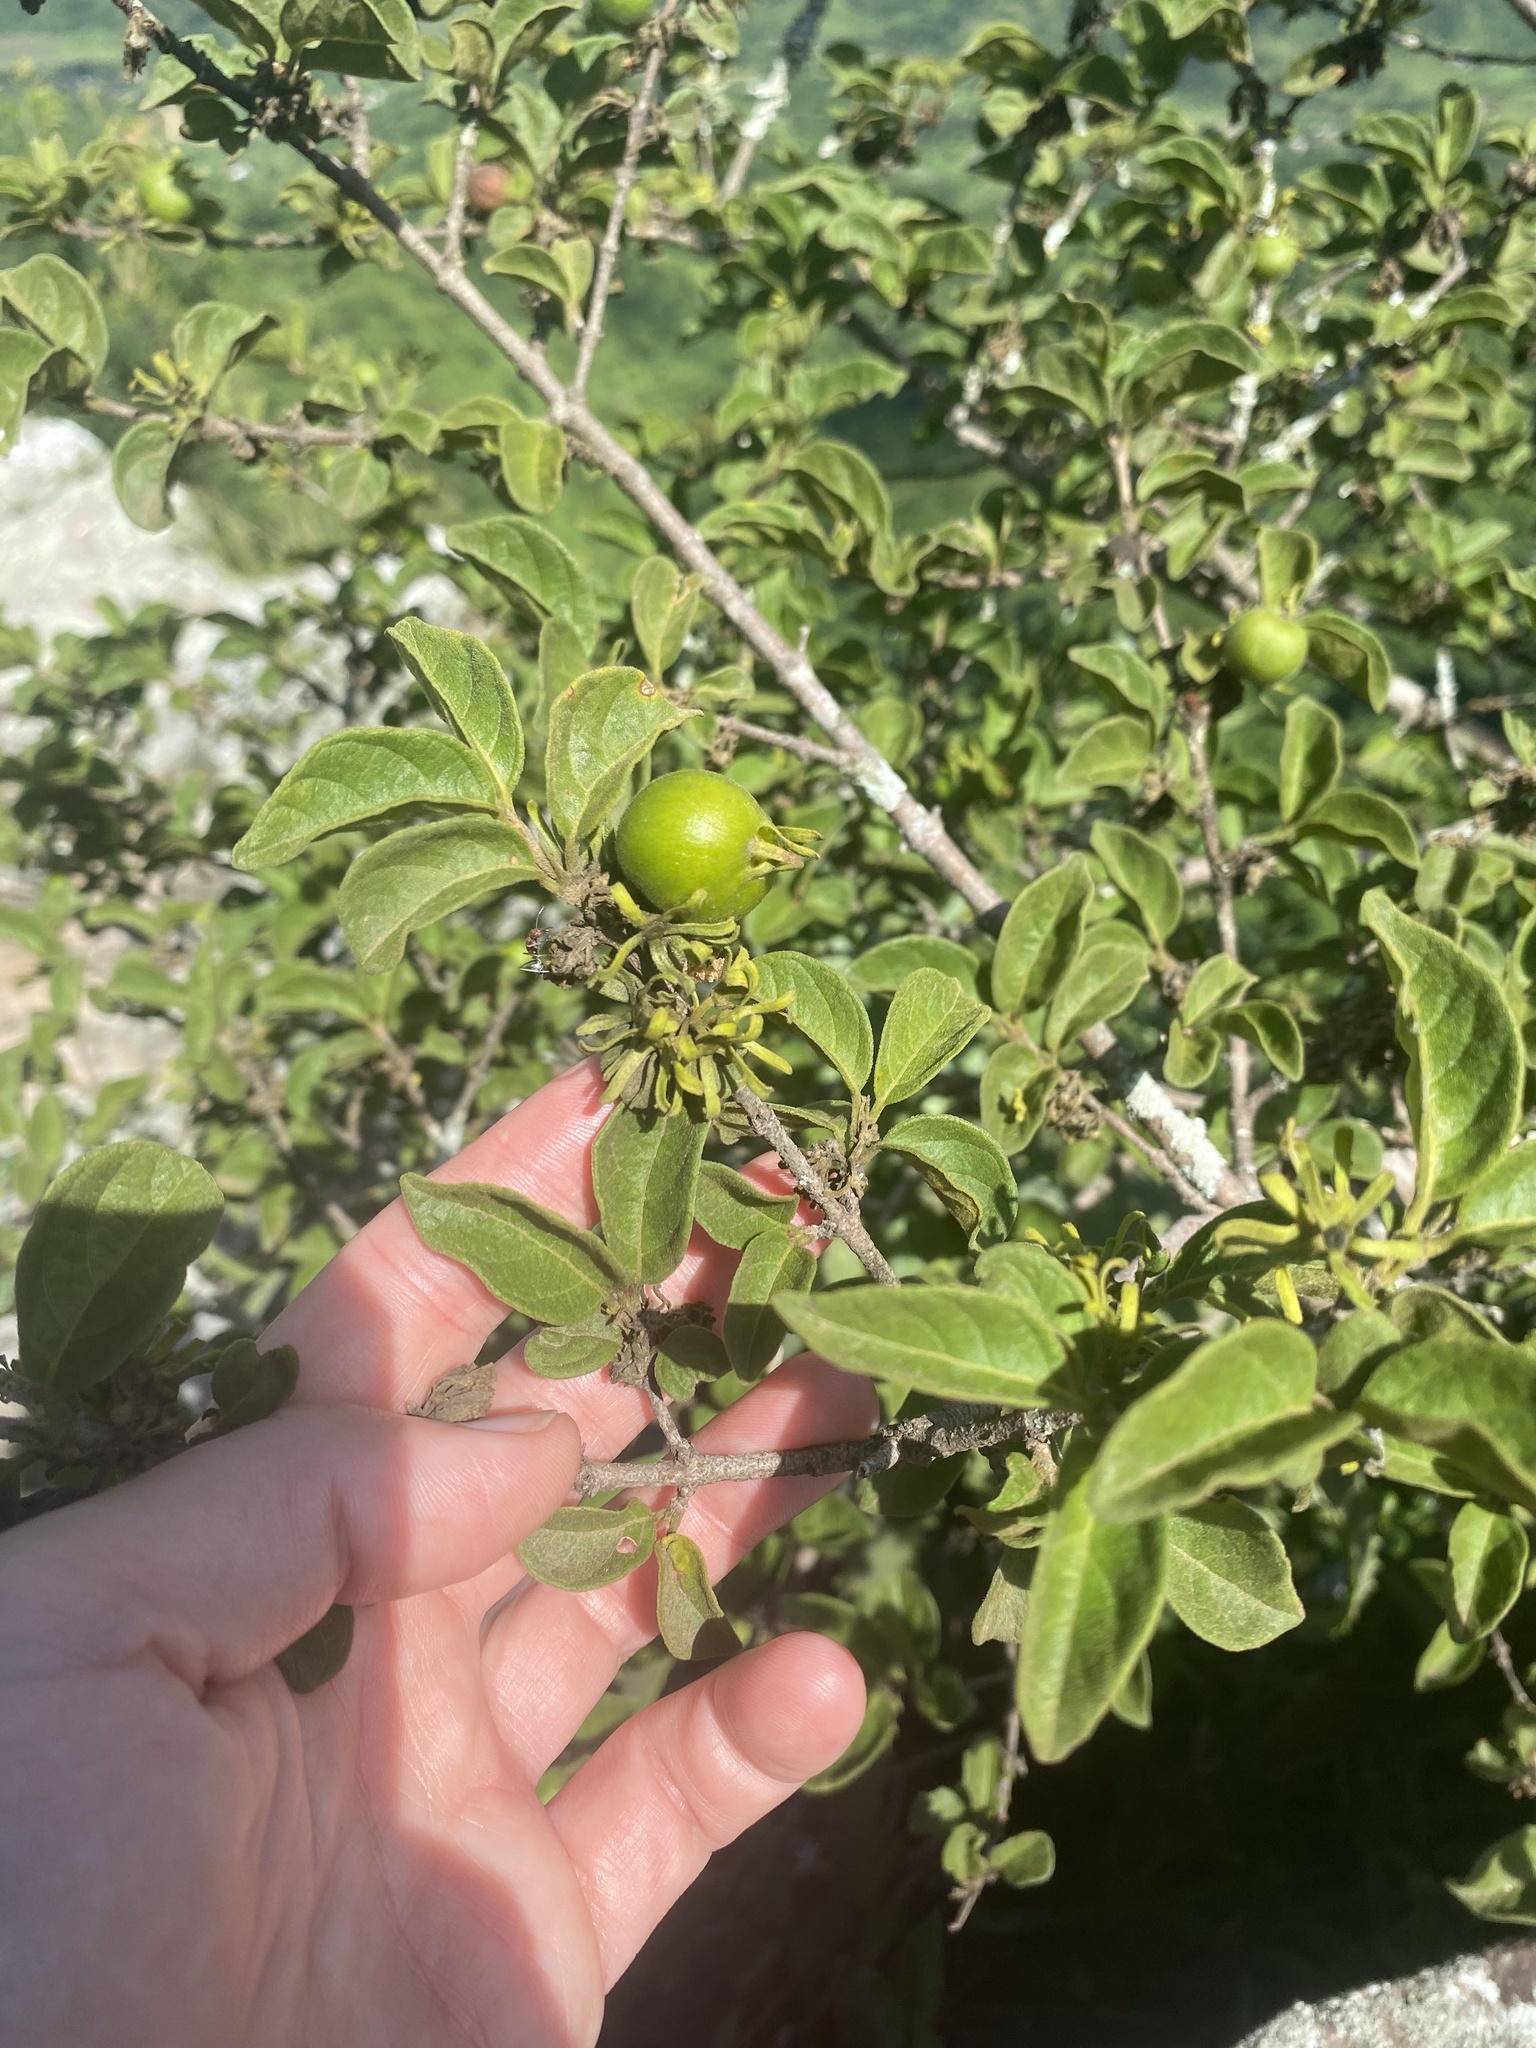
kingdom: Plantae
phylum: Tracheophyta
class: Magnoliopsida
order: Gentianales
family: Rubiaceae
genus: Vangueria
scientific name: Vangueria infausta
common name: Medlar
